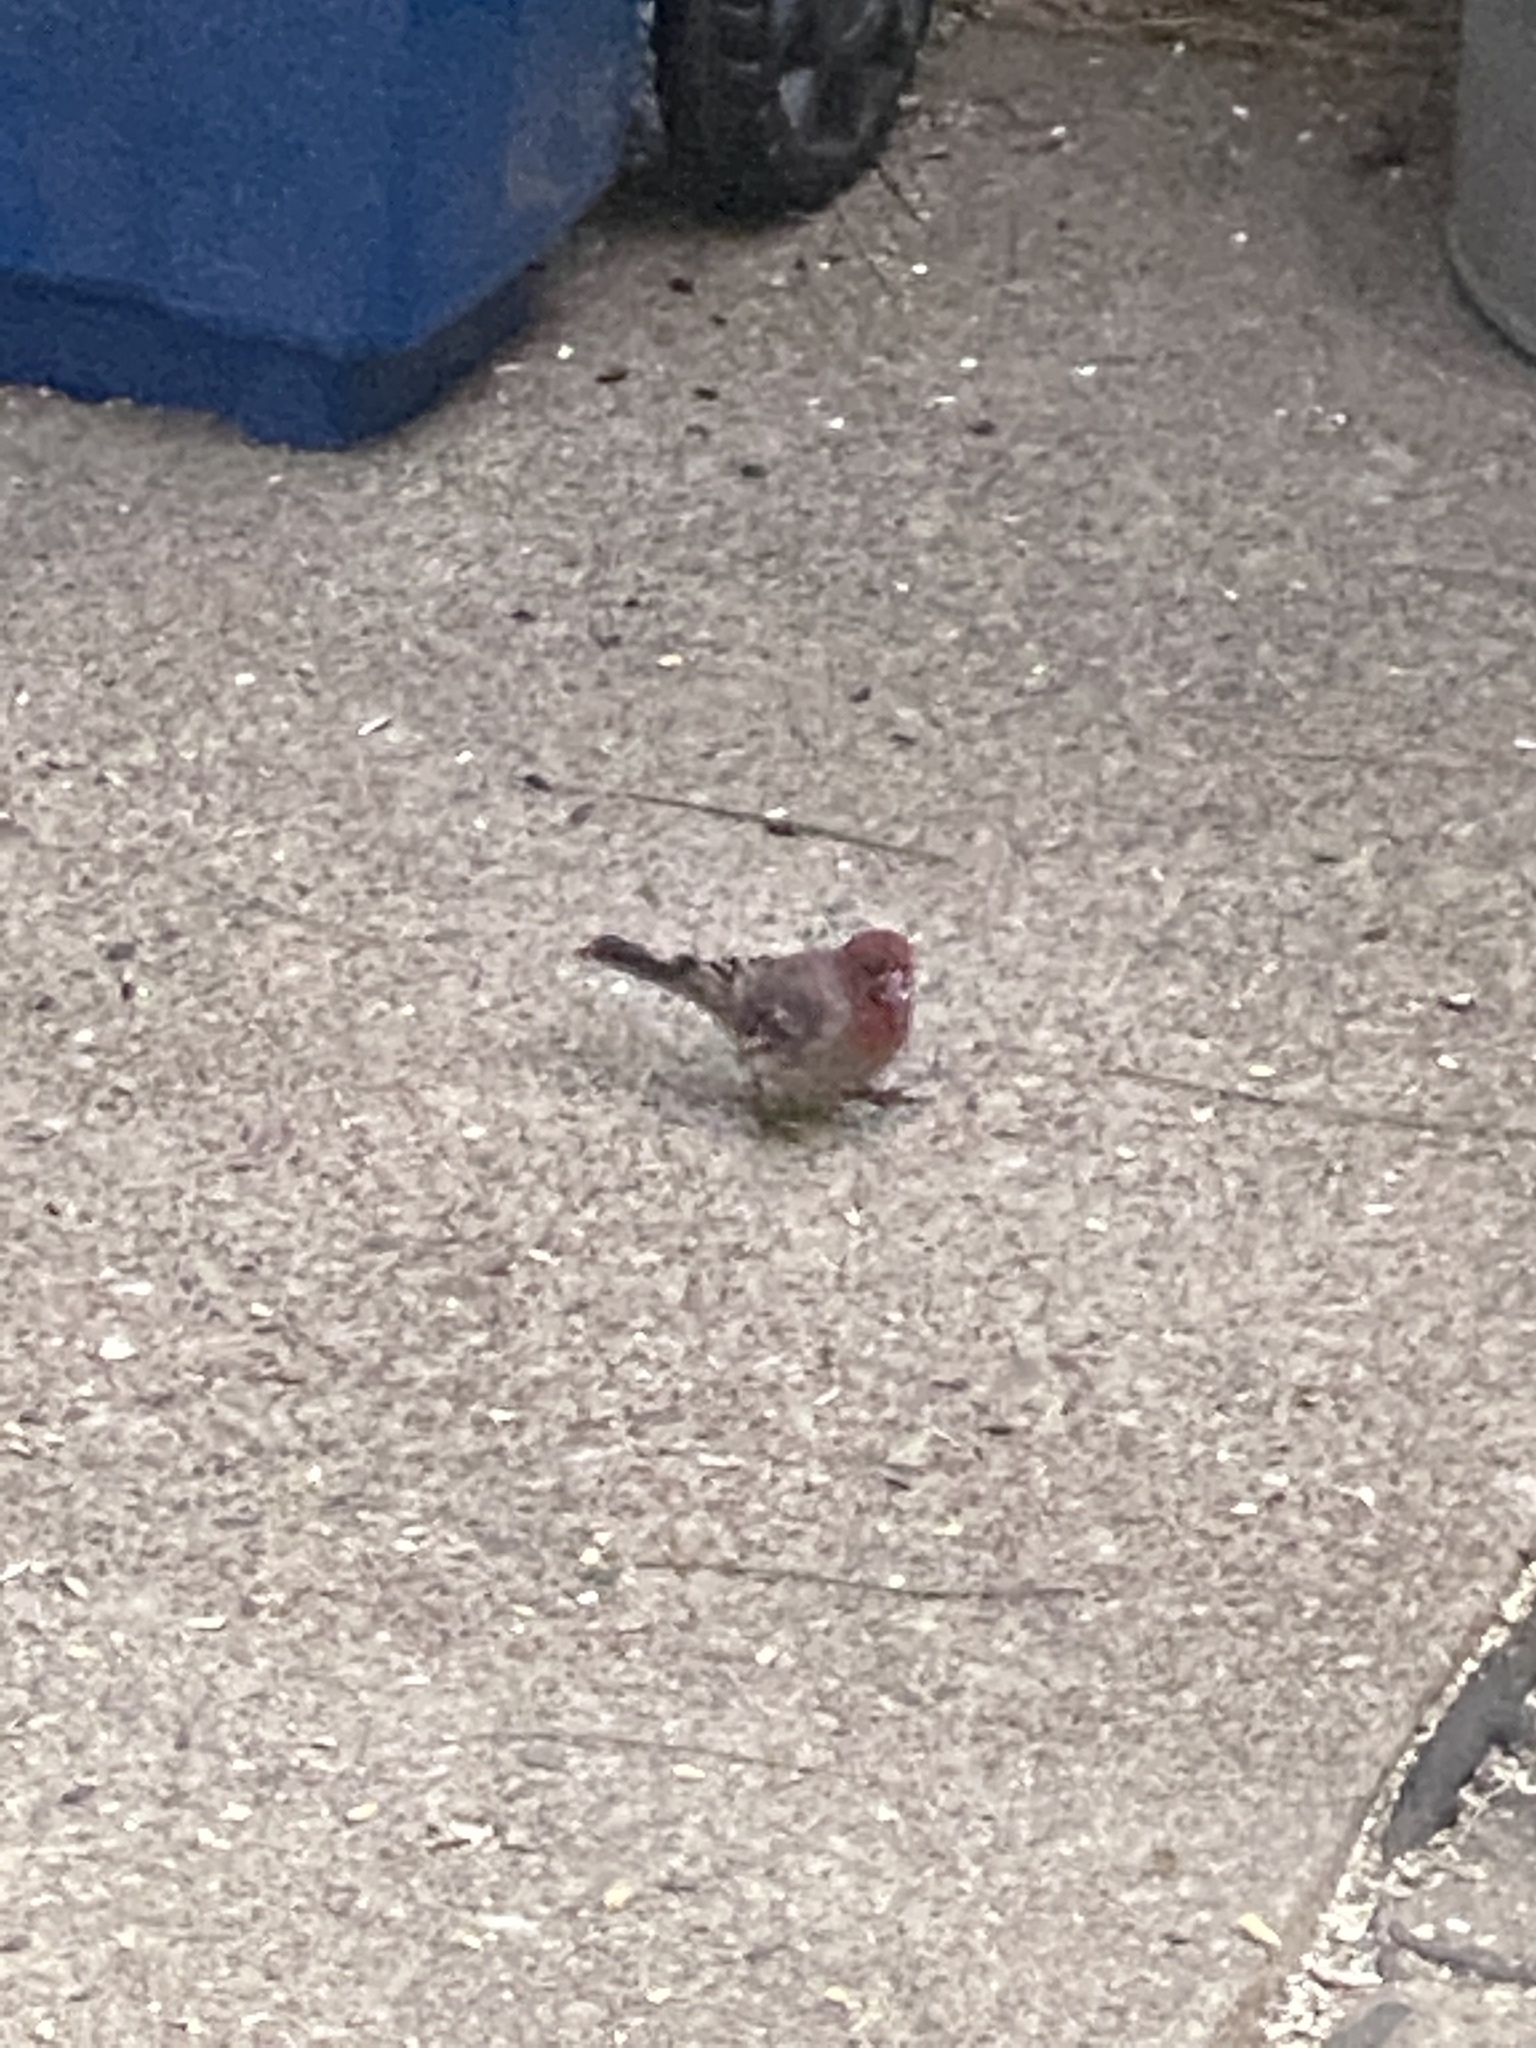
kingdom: Animalia
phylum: Chordata
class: Aves
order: Passeriformes
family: Fringillidae
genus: Haemorhous
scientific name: Haemorhous mexicanus
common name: House finch
